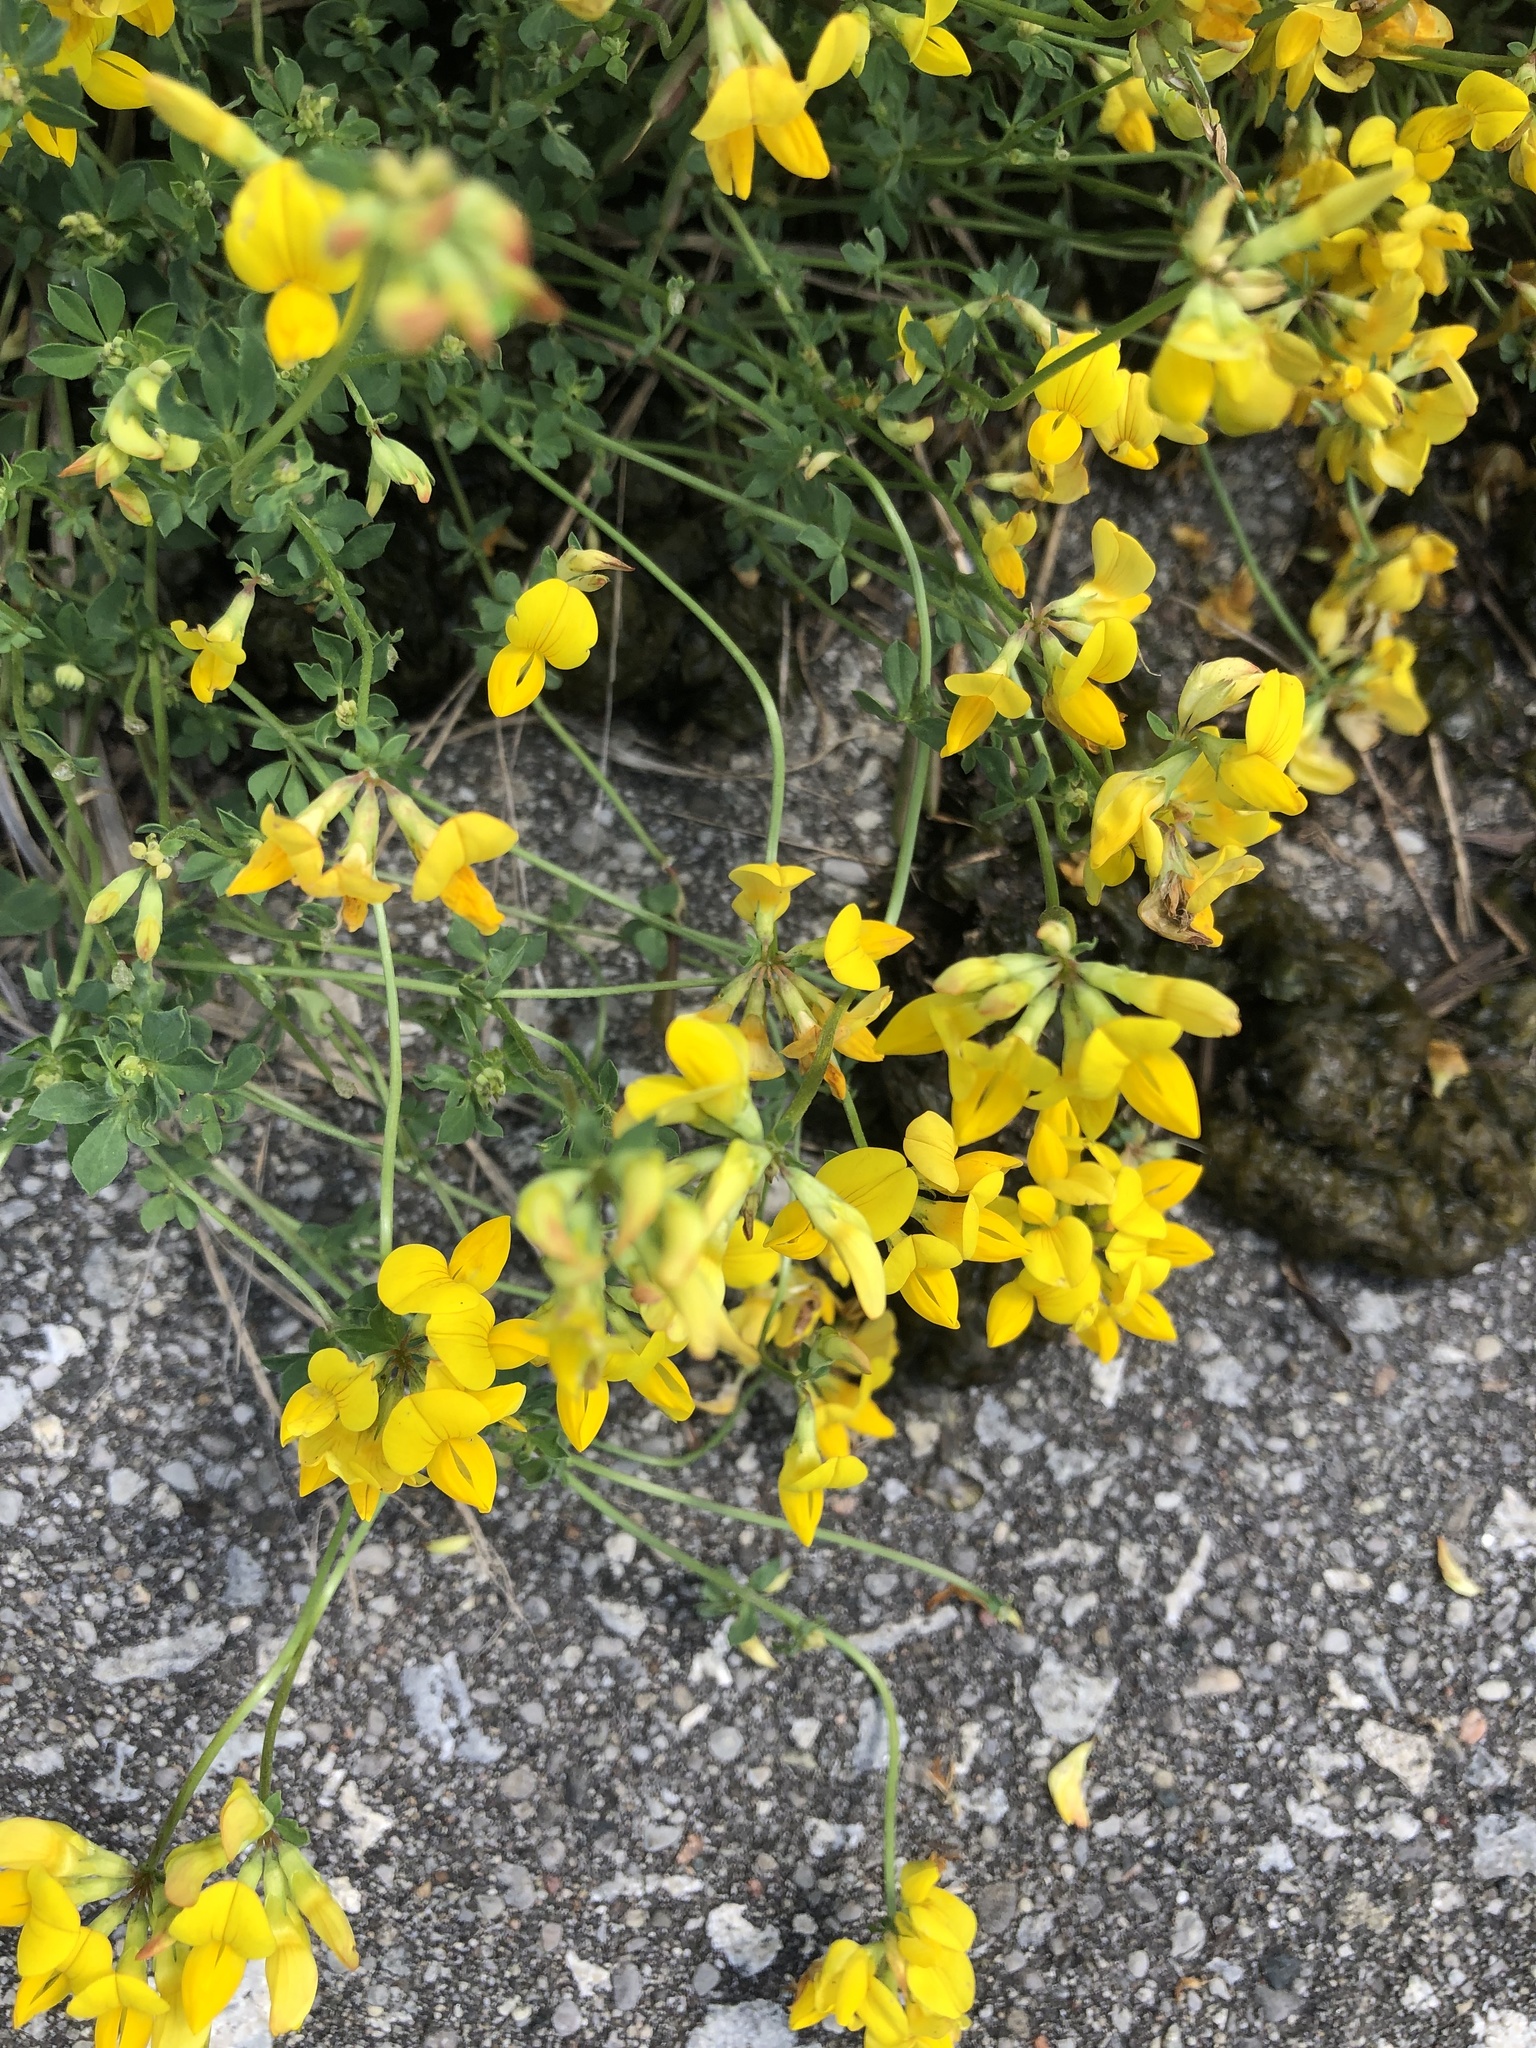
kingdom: Plantae
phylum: Tracheophyta
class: Magnoliopsida
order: Fabales
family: Fabaceae
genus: Lotus
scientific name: Lotus corniculatus
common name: Common bird's-foot-trefoil
